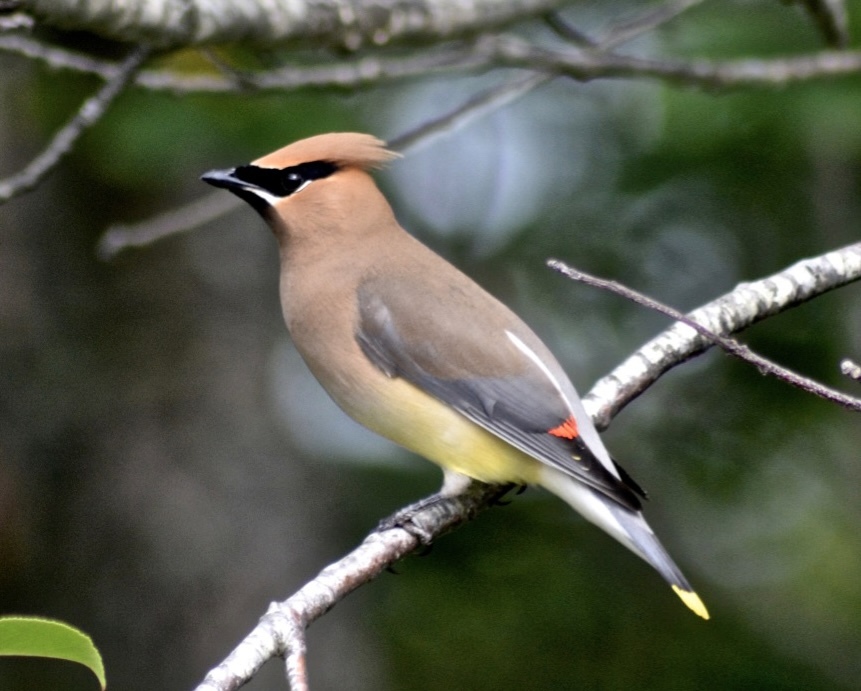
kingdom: Animalia
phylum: Chordata
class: Aves
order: Passeriformes
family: Bombycillidae
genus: Bombycilla
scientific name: Bombycilla cedrorum
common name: Cedar waxwing
